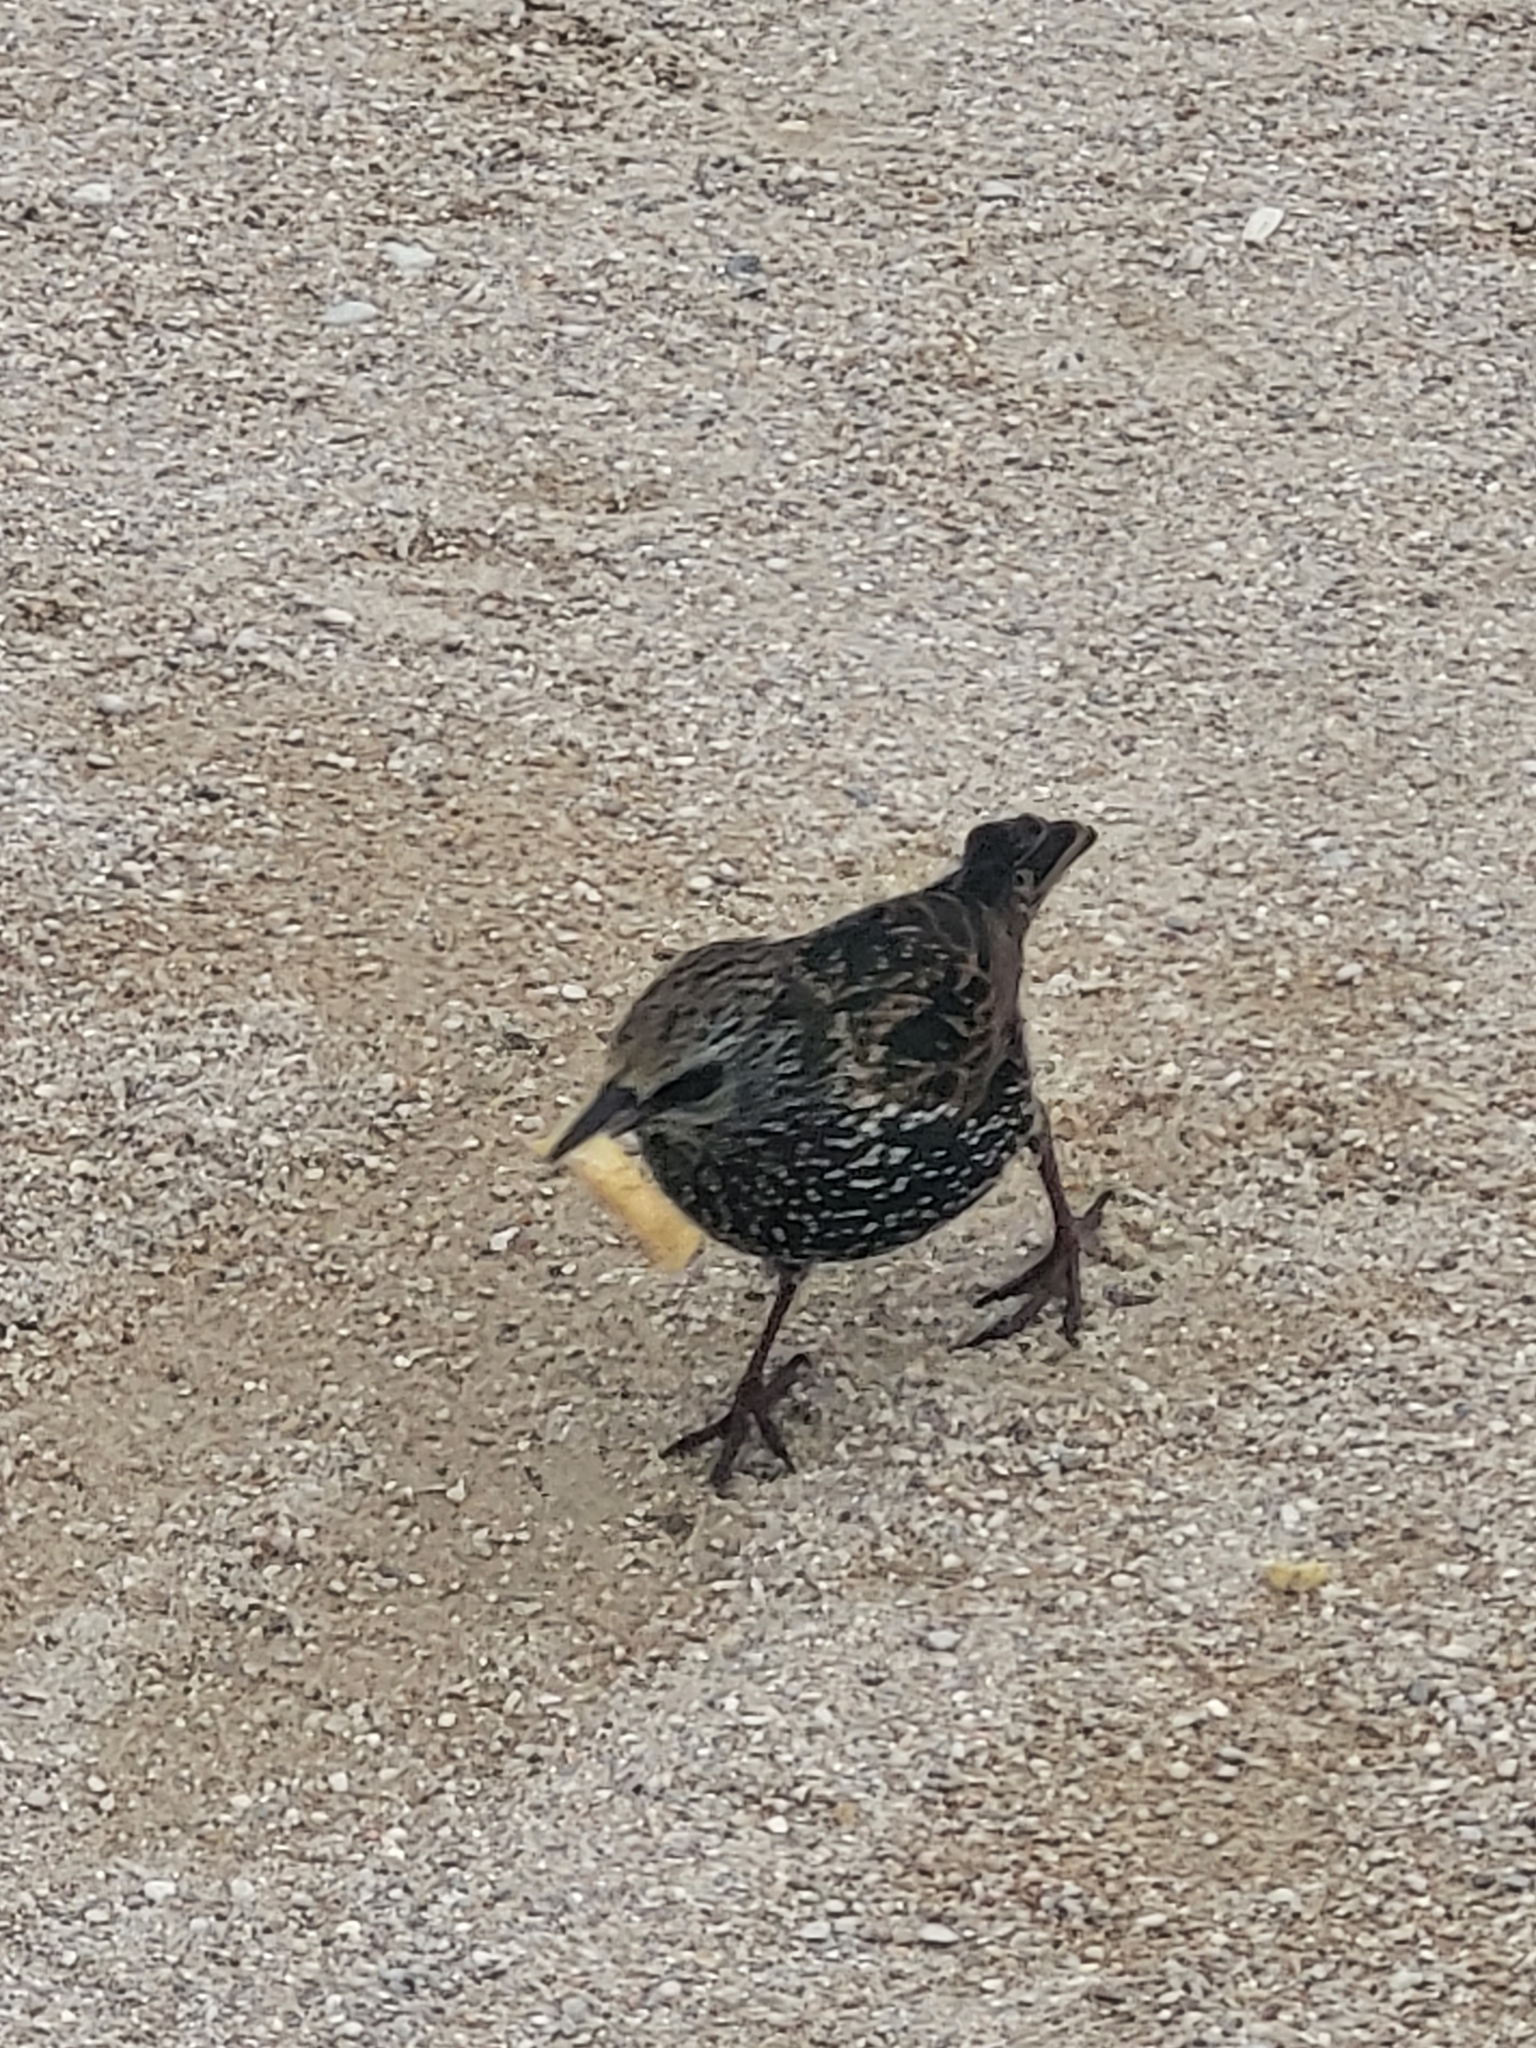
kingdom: Animalia
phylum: Chordata
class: Aves
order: Passeriformes
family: Sturnidae
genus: Sturnus
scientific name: Sturnus vulgaris
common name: Common starling
